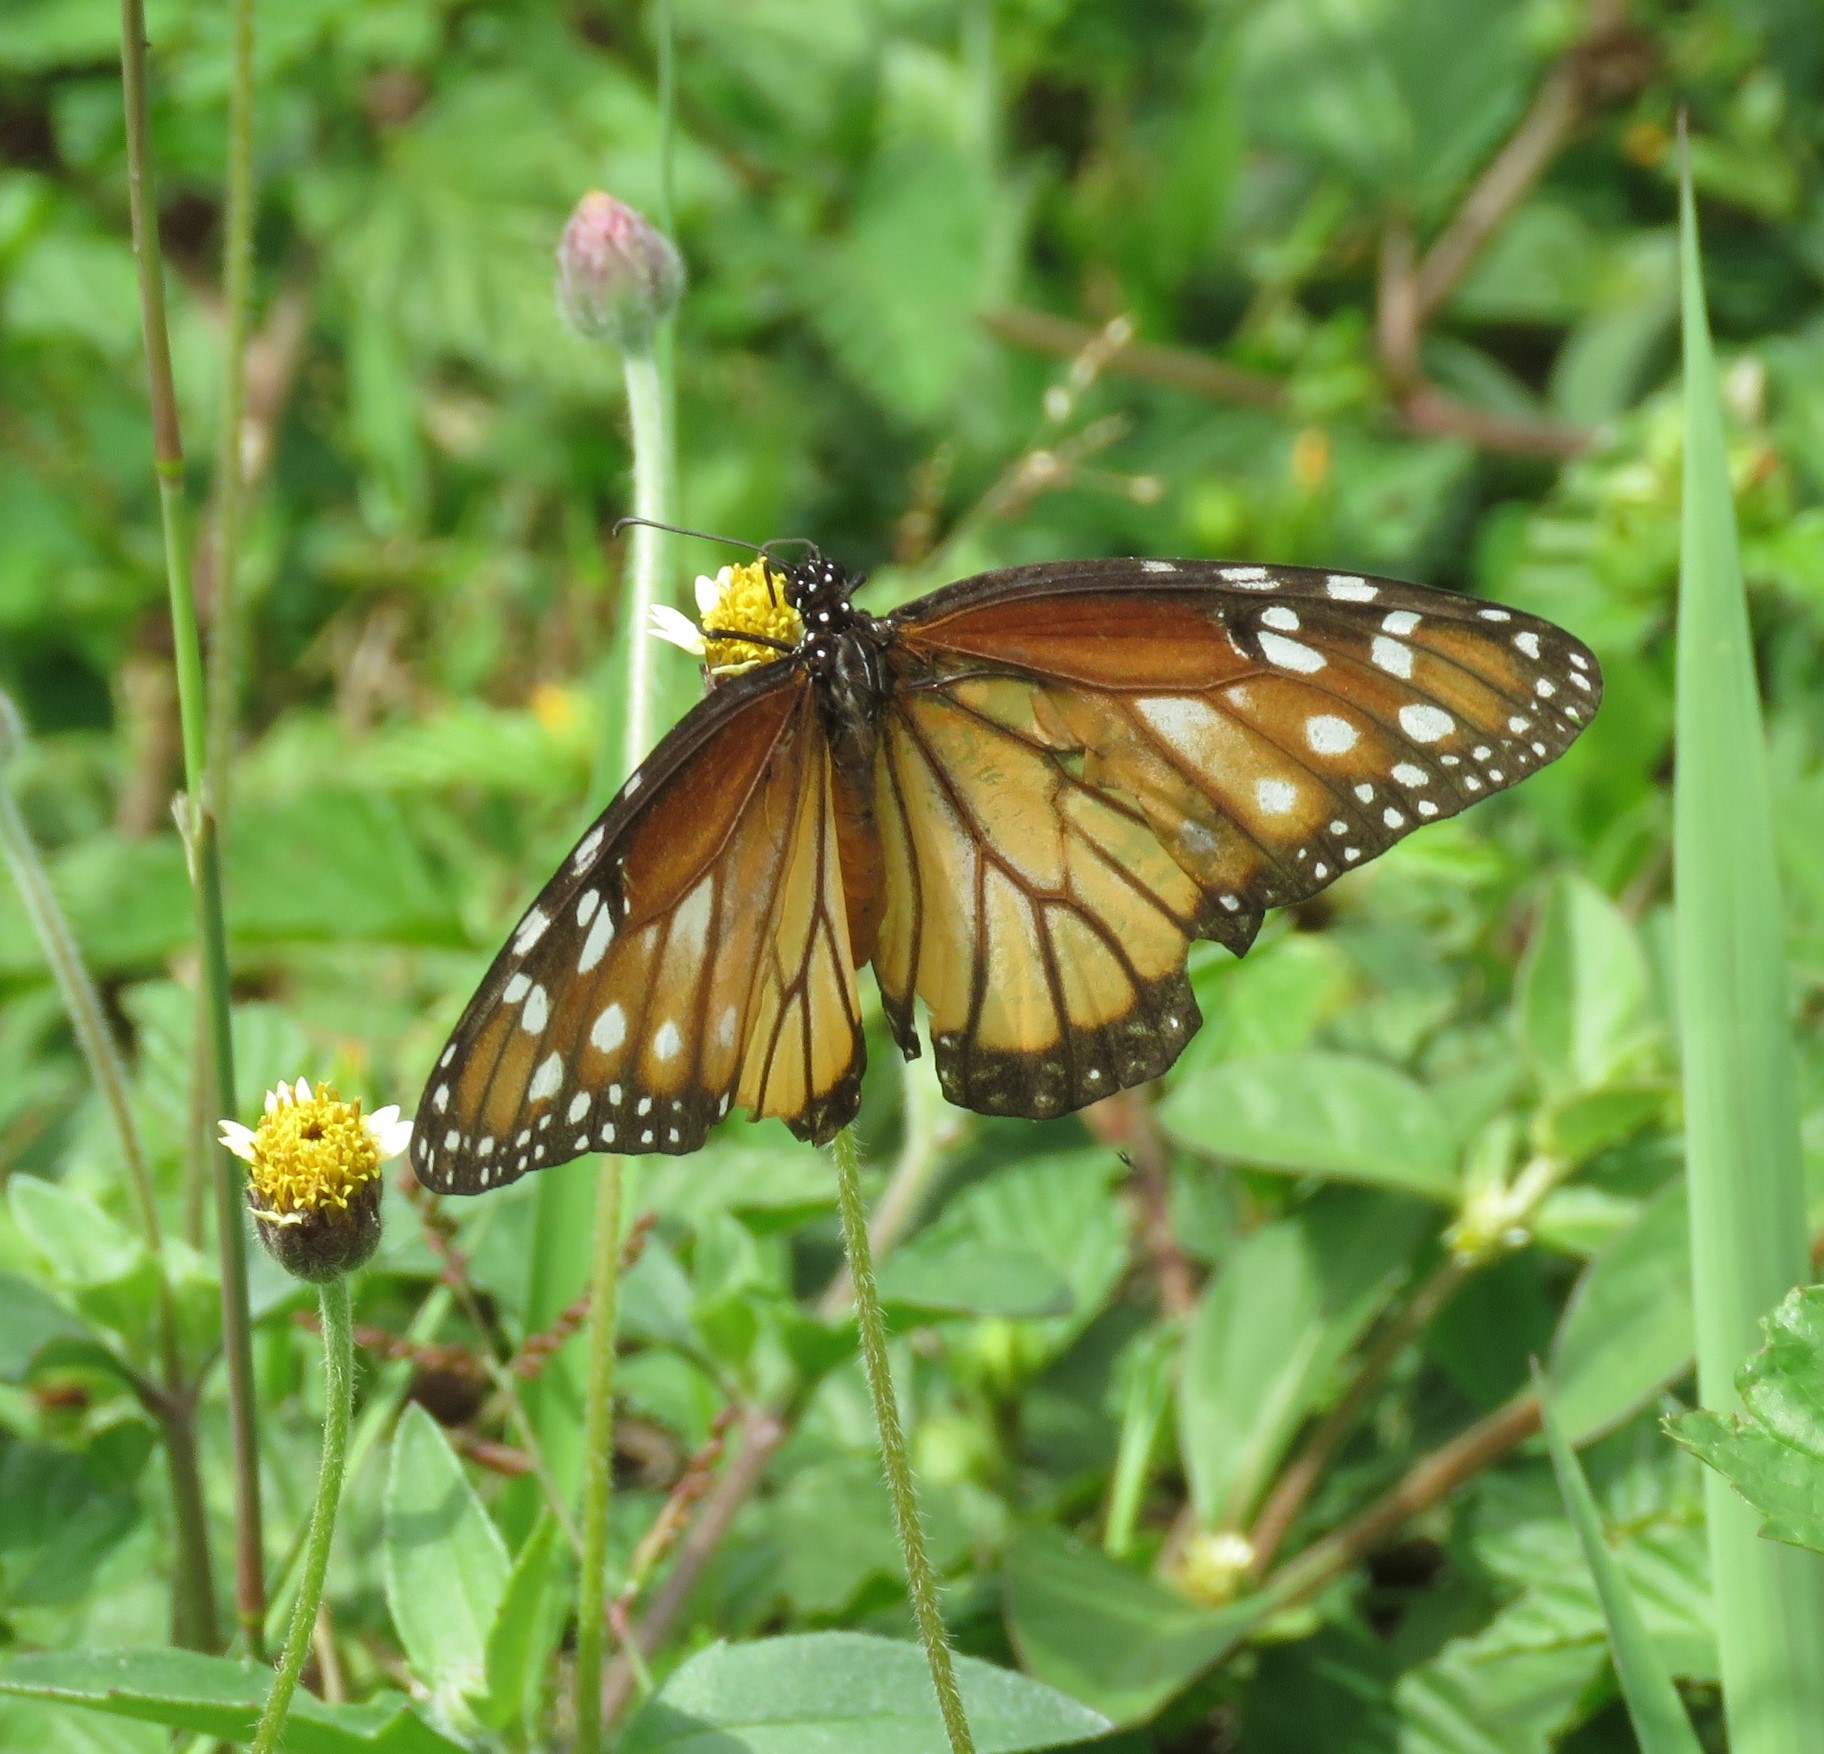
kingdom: Animalia
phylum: Arthropoda
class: Insecta
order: Lepidoptera
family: Nymphalidae
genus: Danaus
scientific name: Danaus gilippus
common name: Queen
